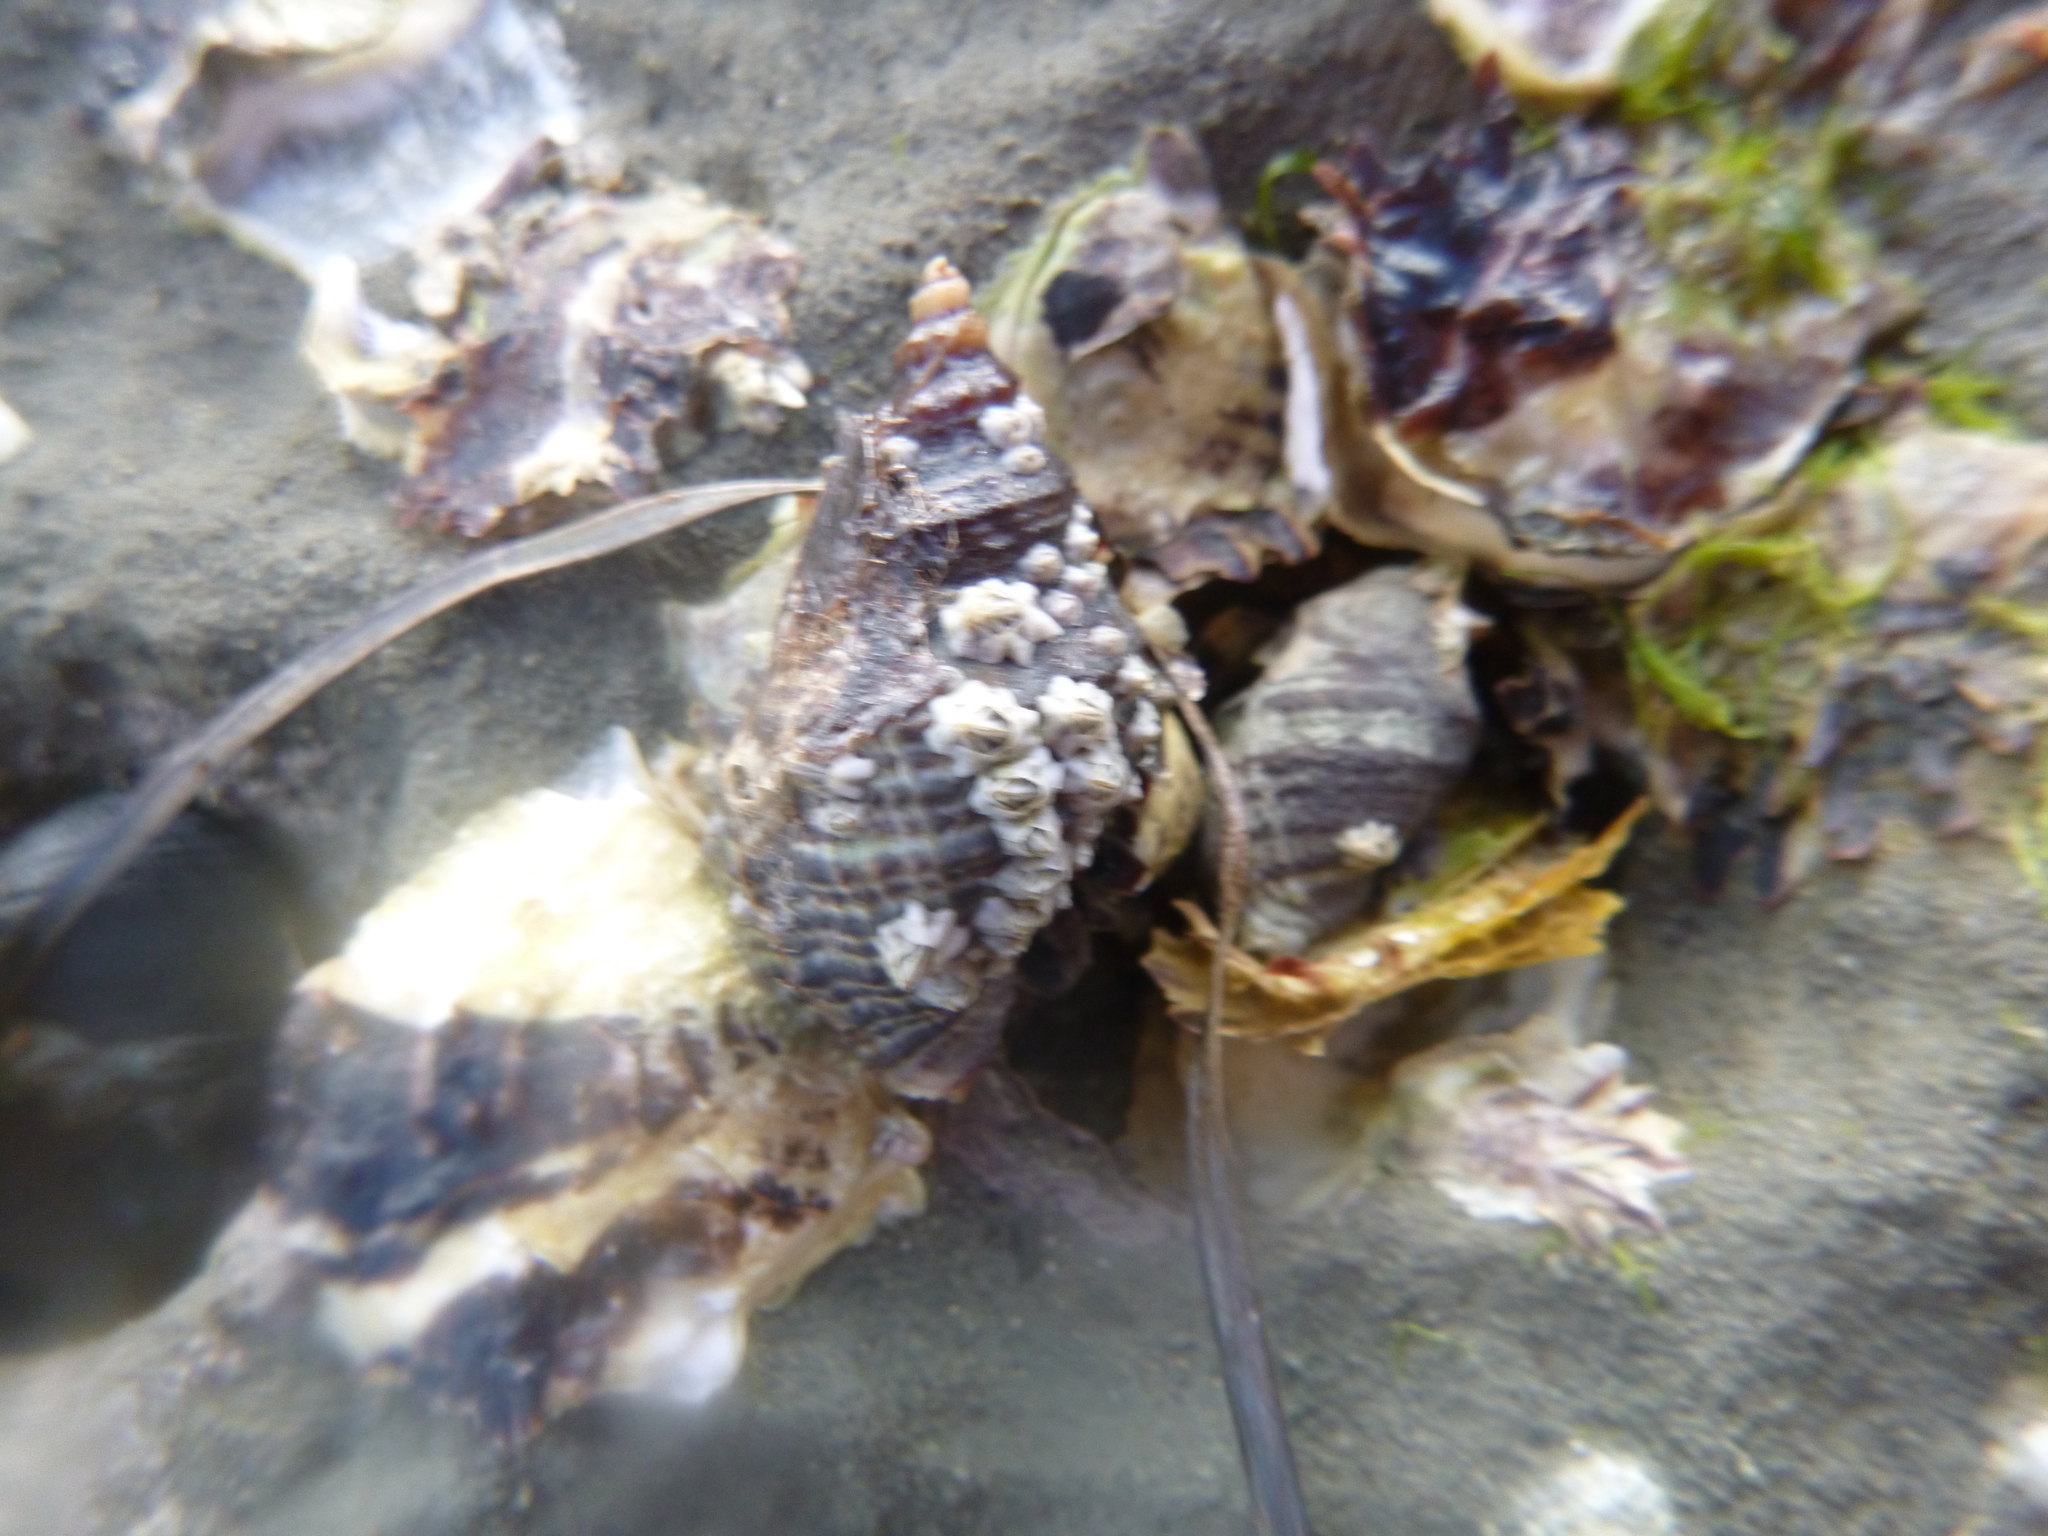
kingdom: Animalia
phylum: Mollusca
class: Gastropoda
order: Neogastropoda
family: Muricidae
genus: Haustrum
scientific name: Haustrum albomarginatum
